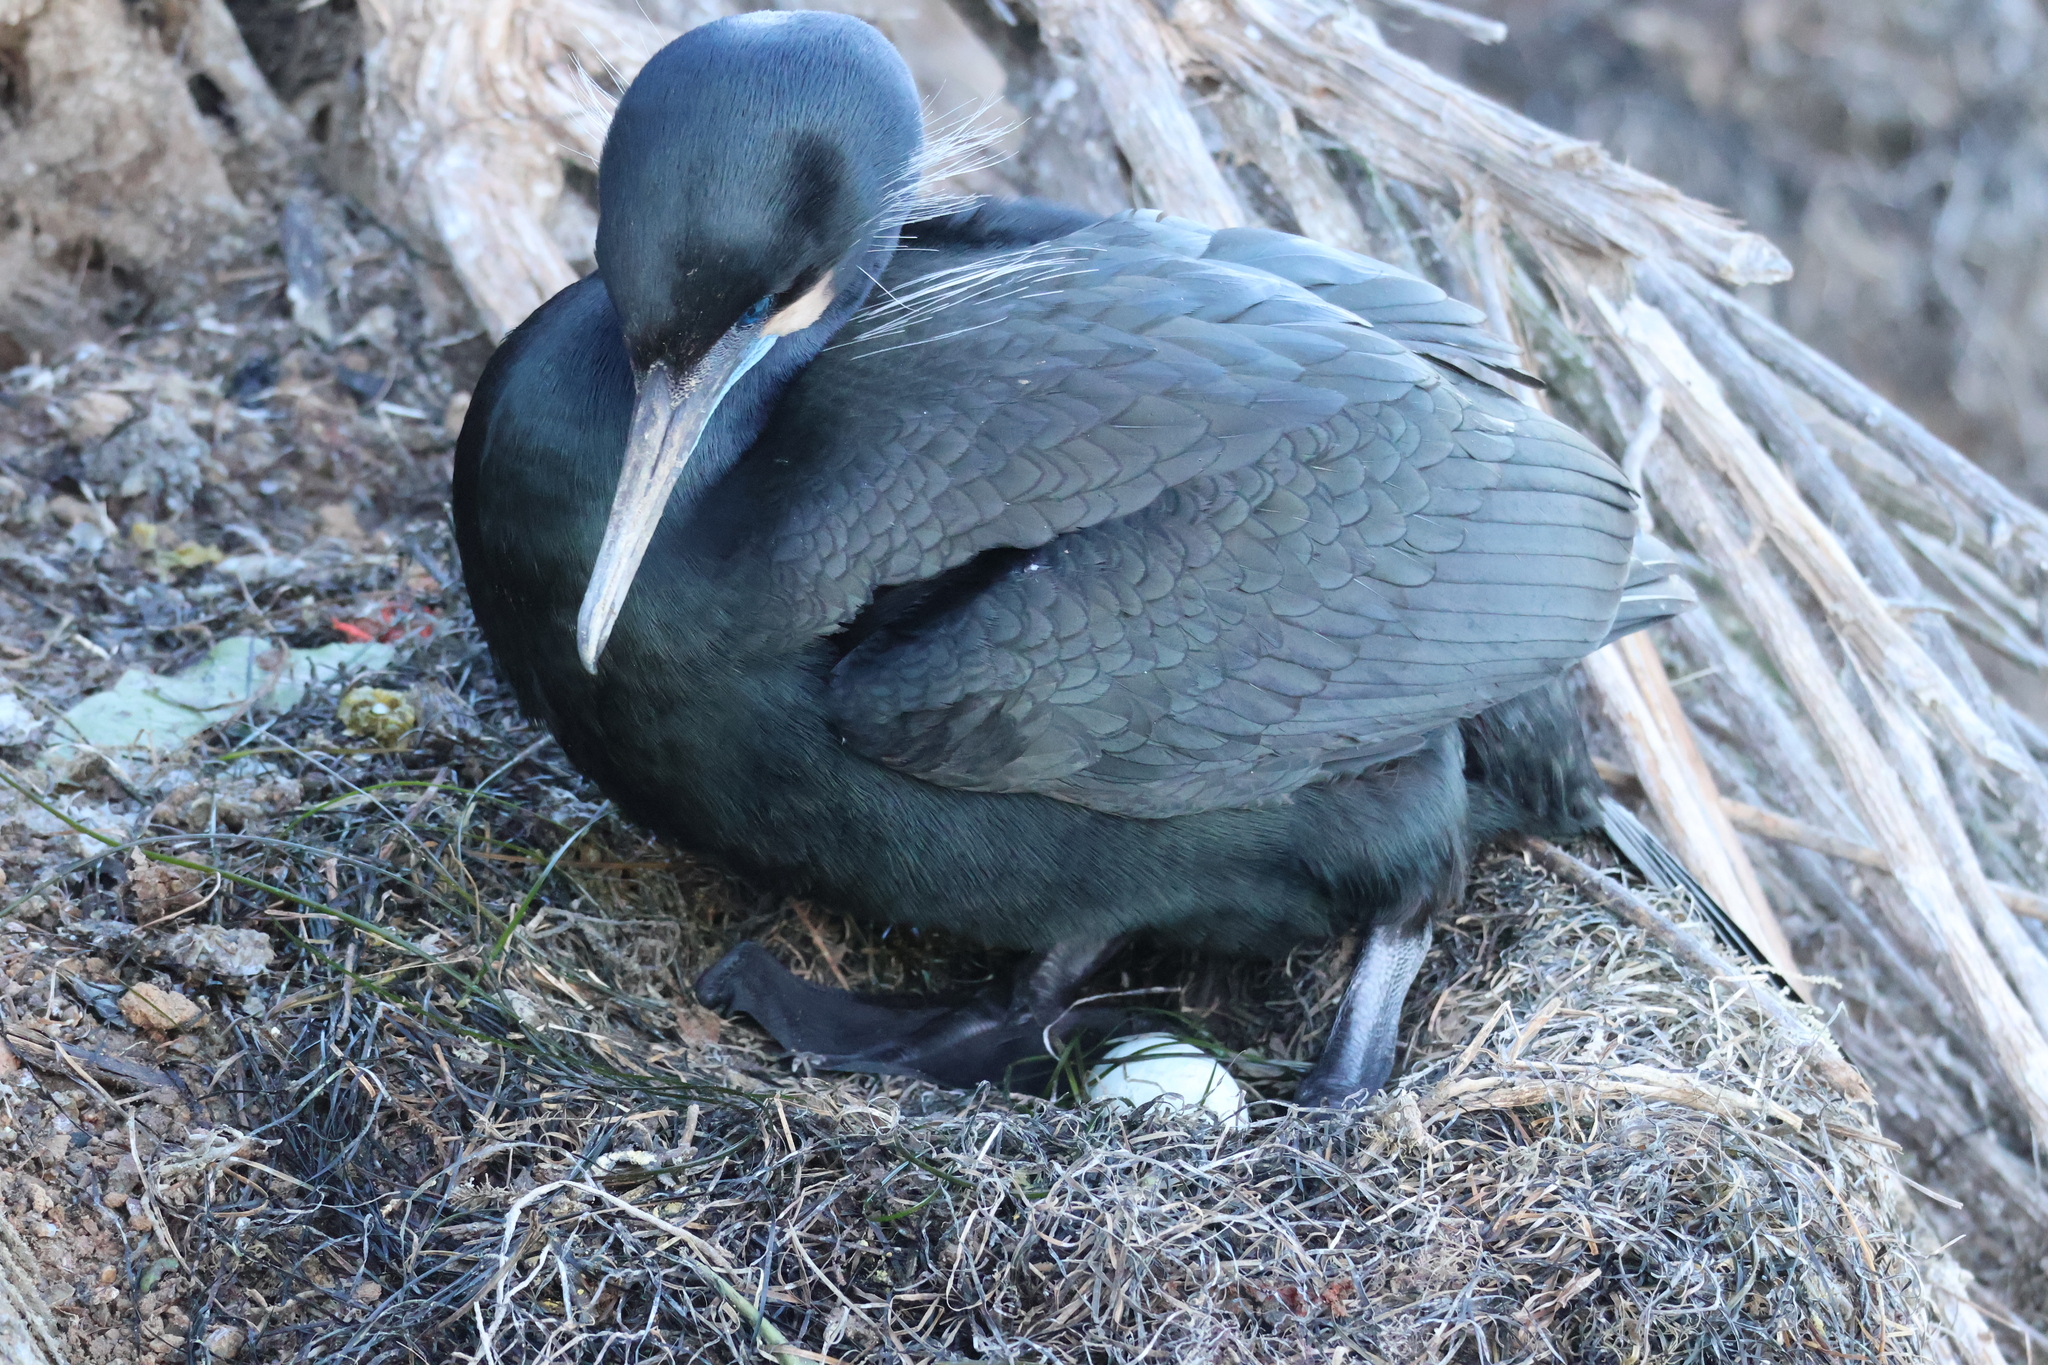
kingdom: Animalia
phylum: Chordata
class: Aves
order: Suliformes
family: Phalacrocoracidae
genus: Urile
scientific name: Urile penicillatus
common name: Brandt's cormorant
